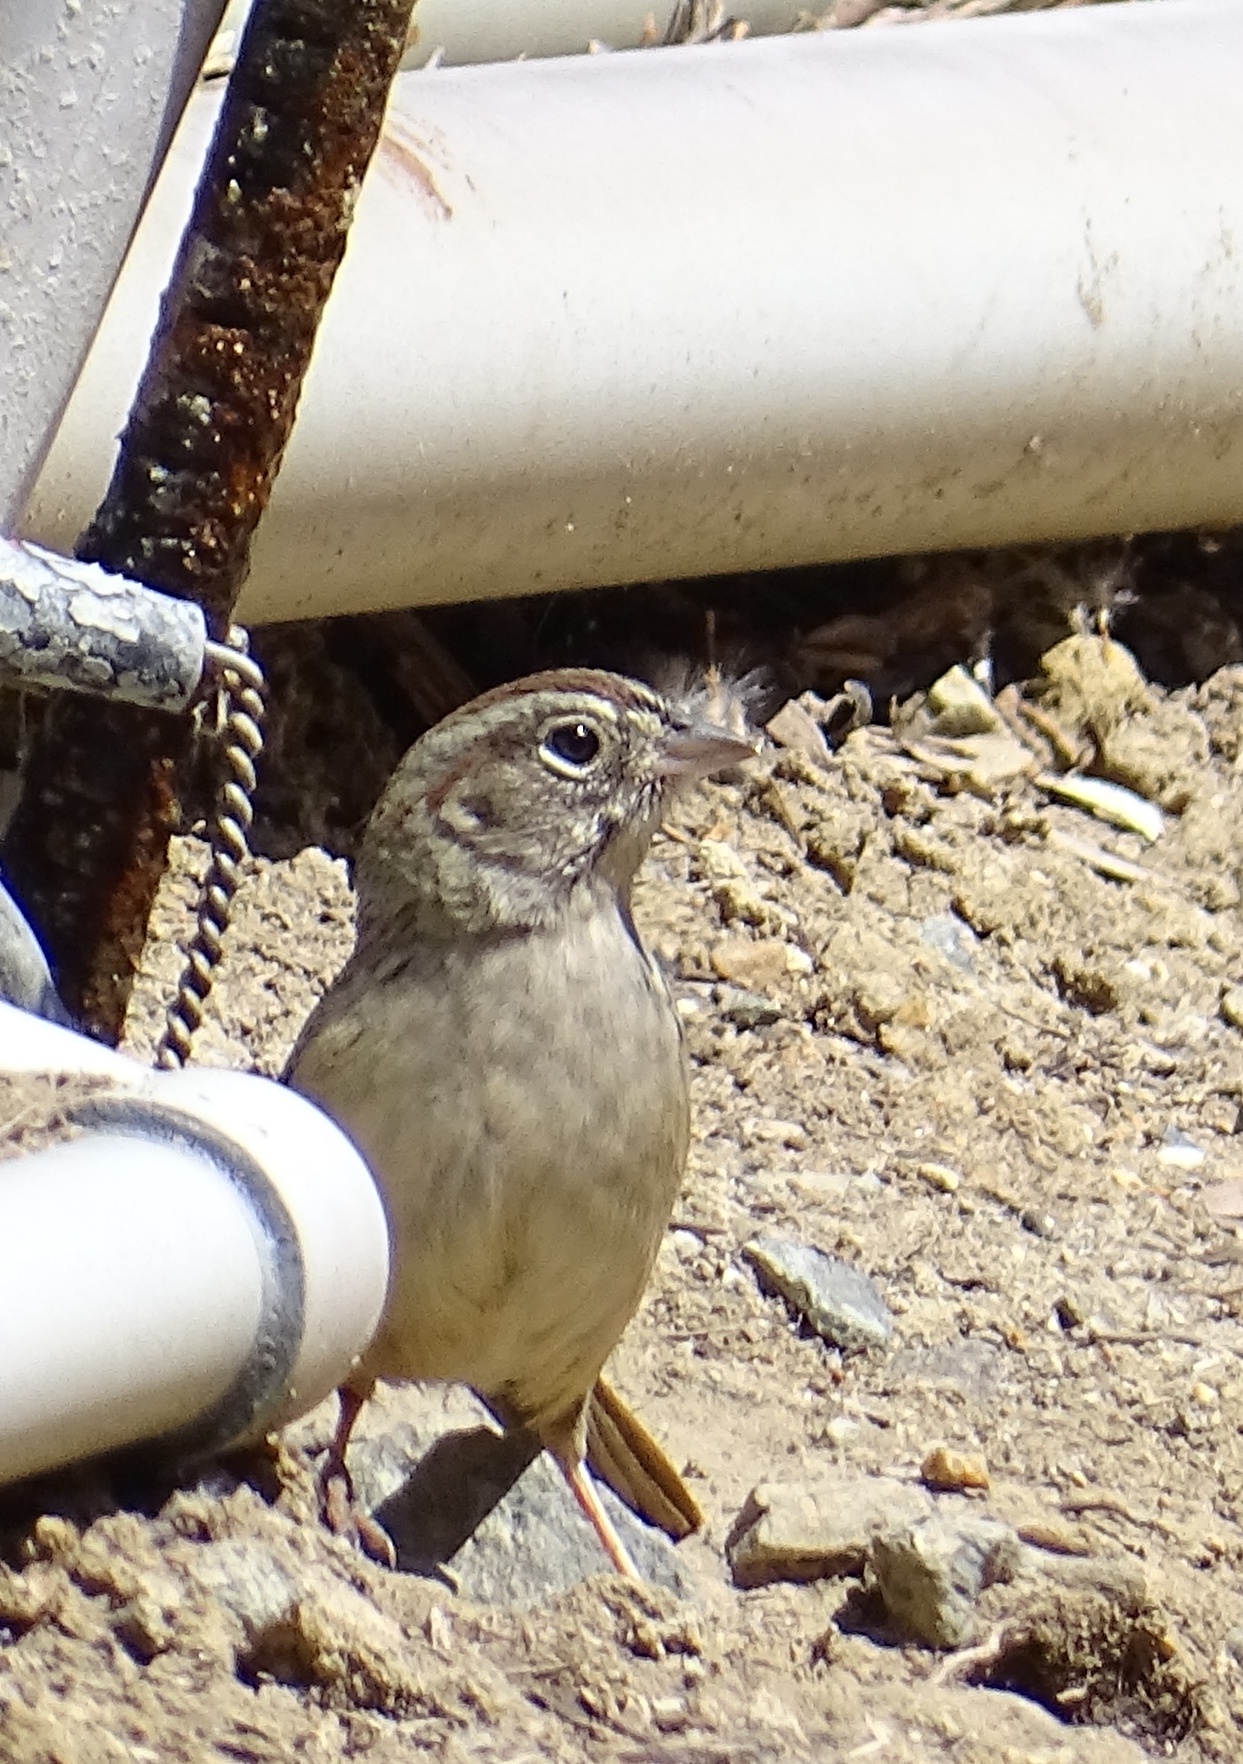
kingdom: Animalia
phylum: Chordata
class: Aves
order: Passeriformes
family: Passerellidae
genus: Aimophila
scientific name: Aimophila ruficeps
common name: Rufous-crowned sparrow
